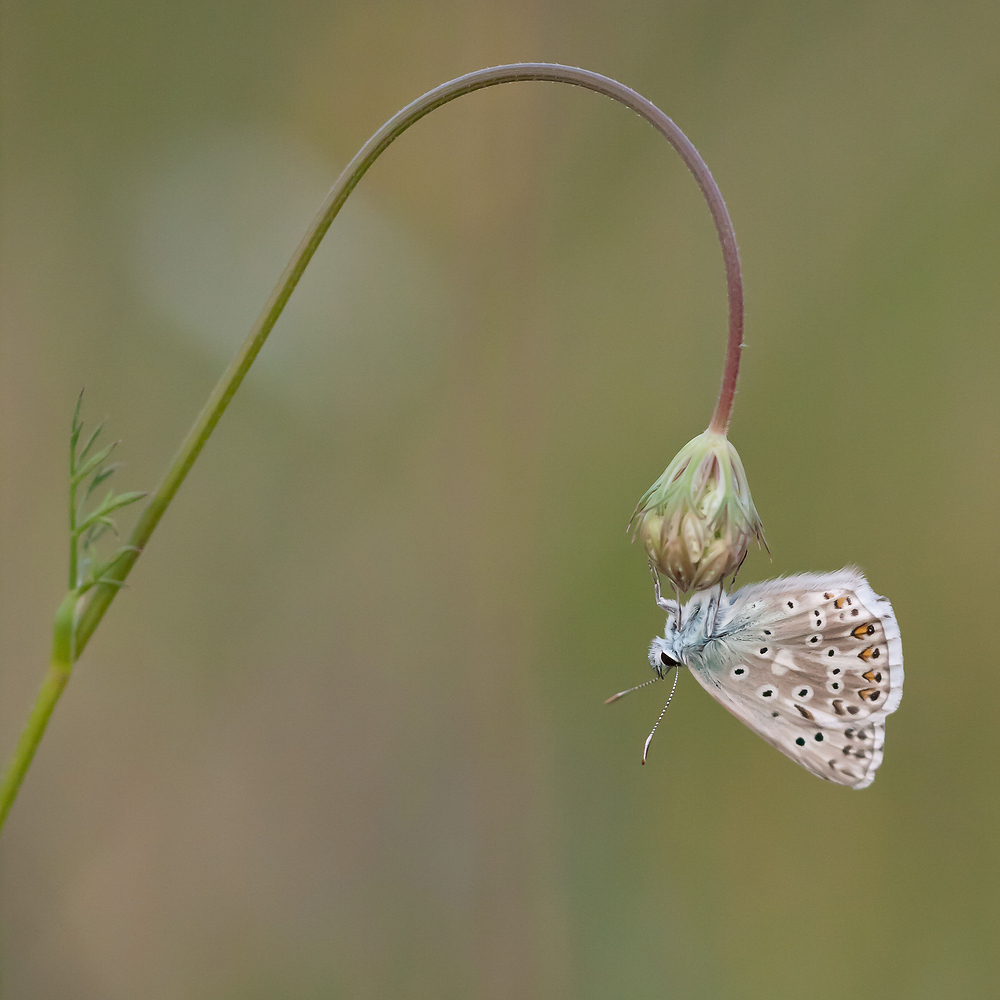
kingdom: Animalia
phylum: Arthropoda
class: Insecta
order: Lepidoptera
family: Lycaenidae
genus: Lysandra
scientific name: Lysandra coridon
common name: Chalkhill blue
